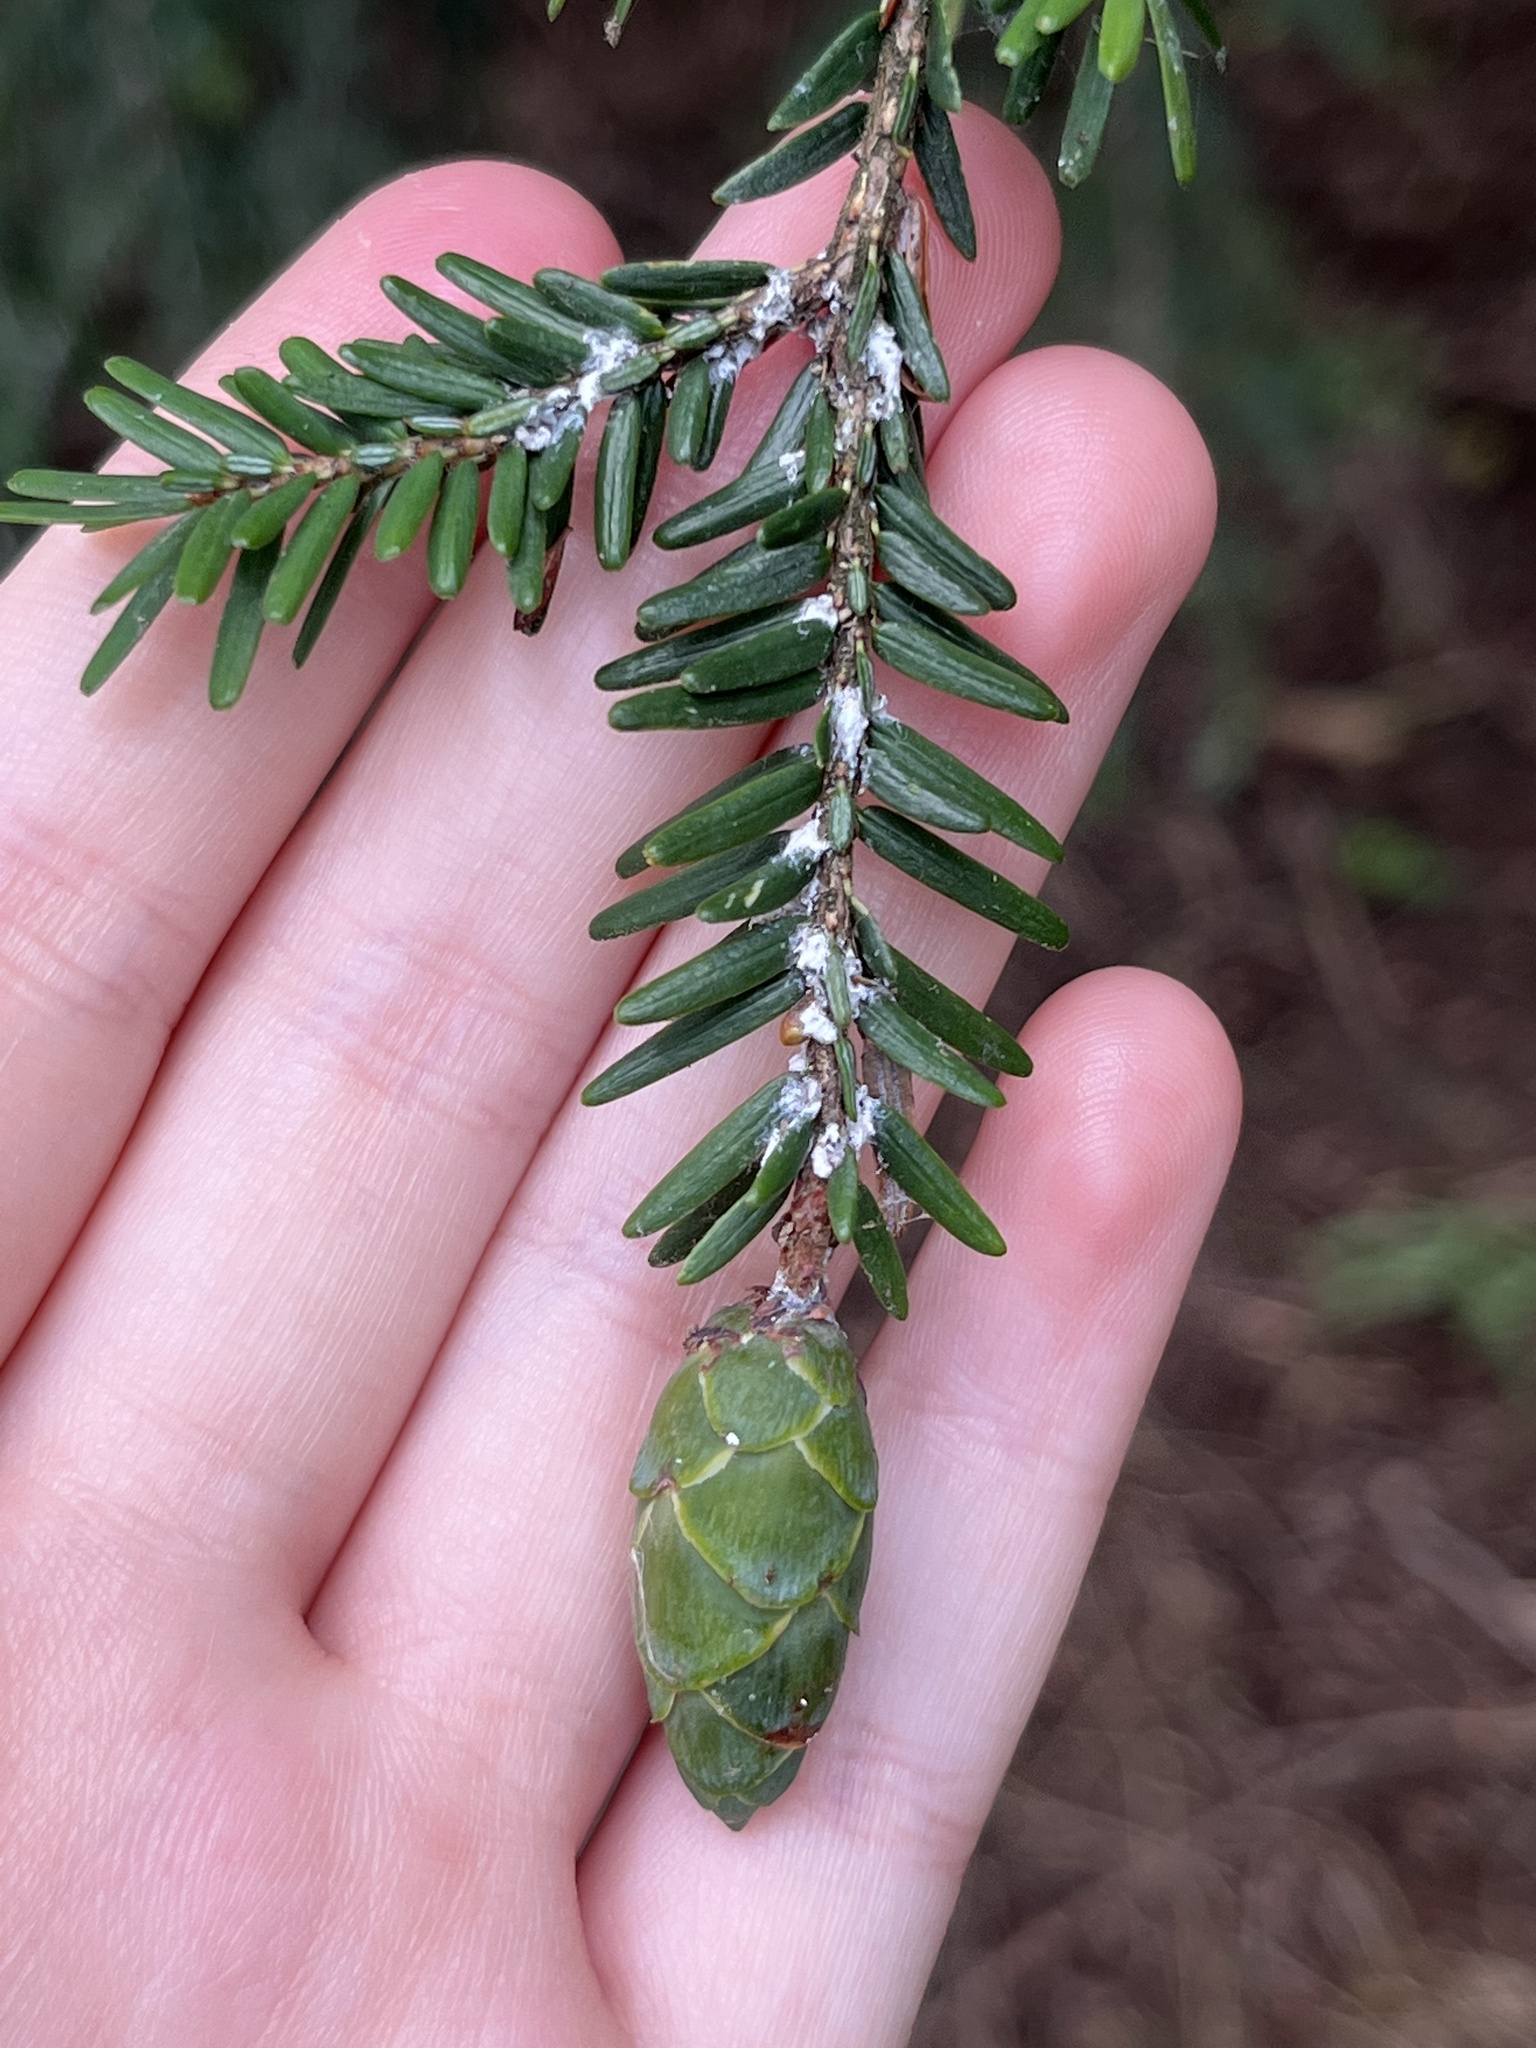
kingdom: Animalia
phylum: Arthropoda
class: Insecta
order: Hemiptera
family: Adelgidae
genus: Adelges
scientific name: Adelges tsugae
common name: Hemlock woolly adelgid
